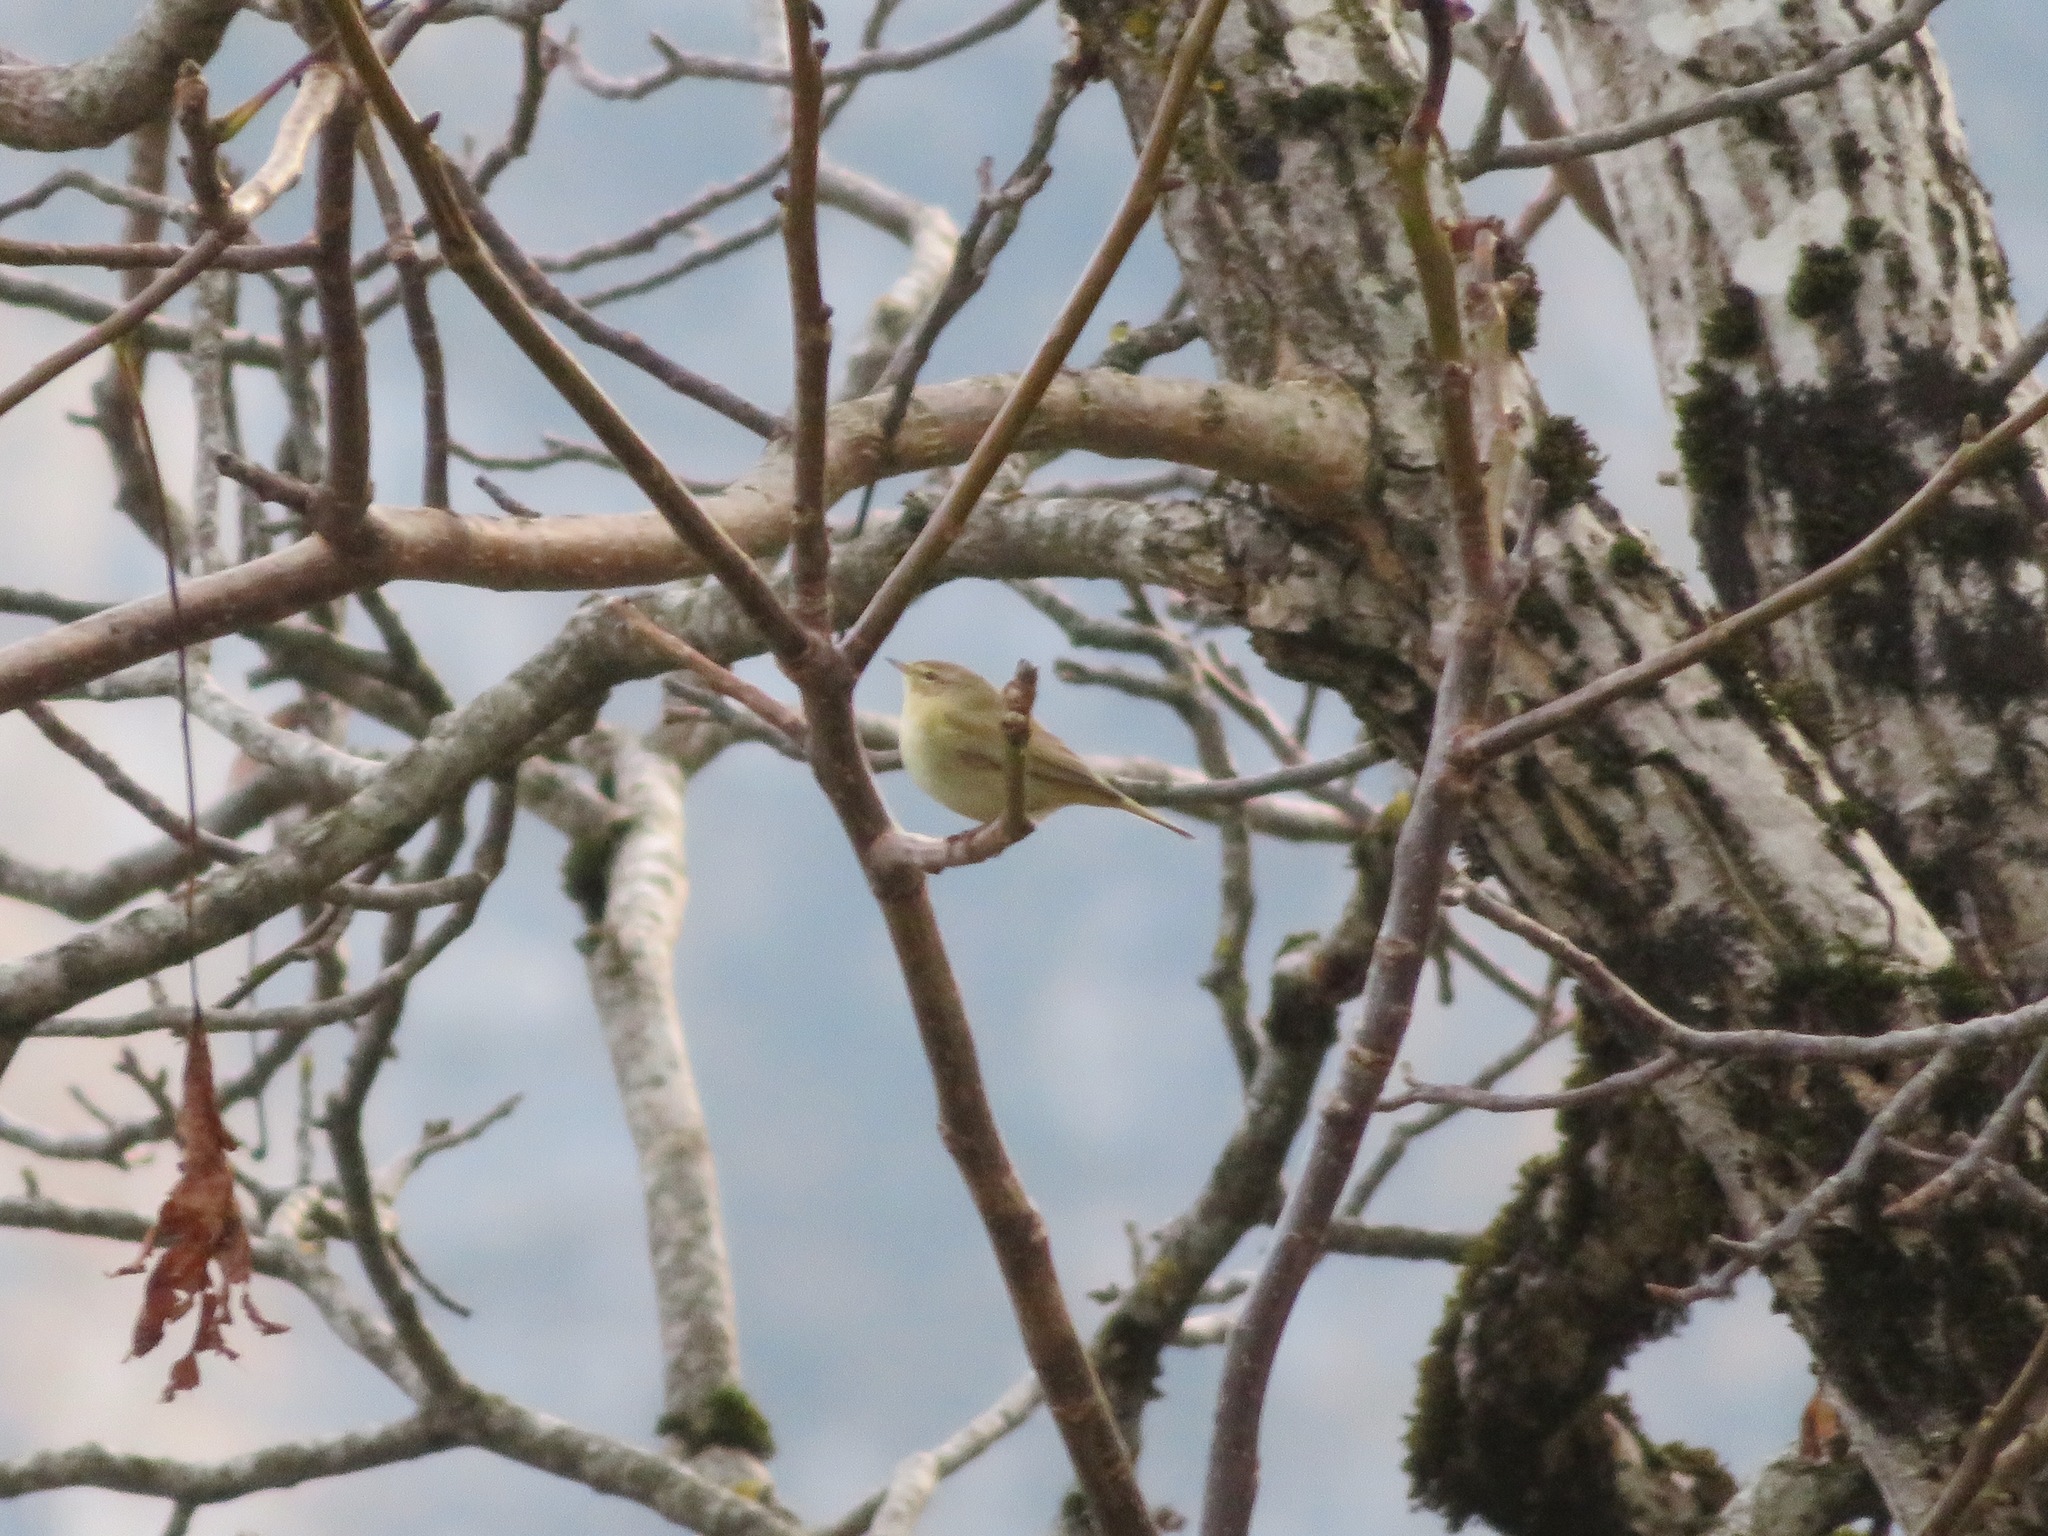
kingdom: Animalia
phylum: Chordata
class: Aves
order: Passeriformes
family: Phylloscopidae
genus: Phylloscopus
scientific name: Phylloscopus collybita
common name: Common chiffchaff
